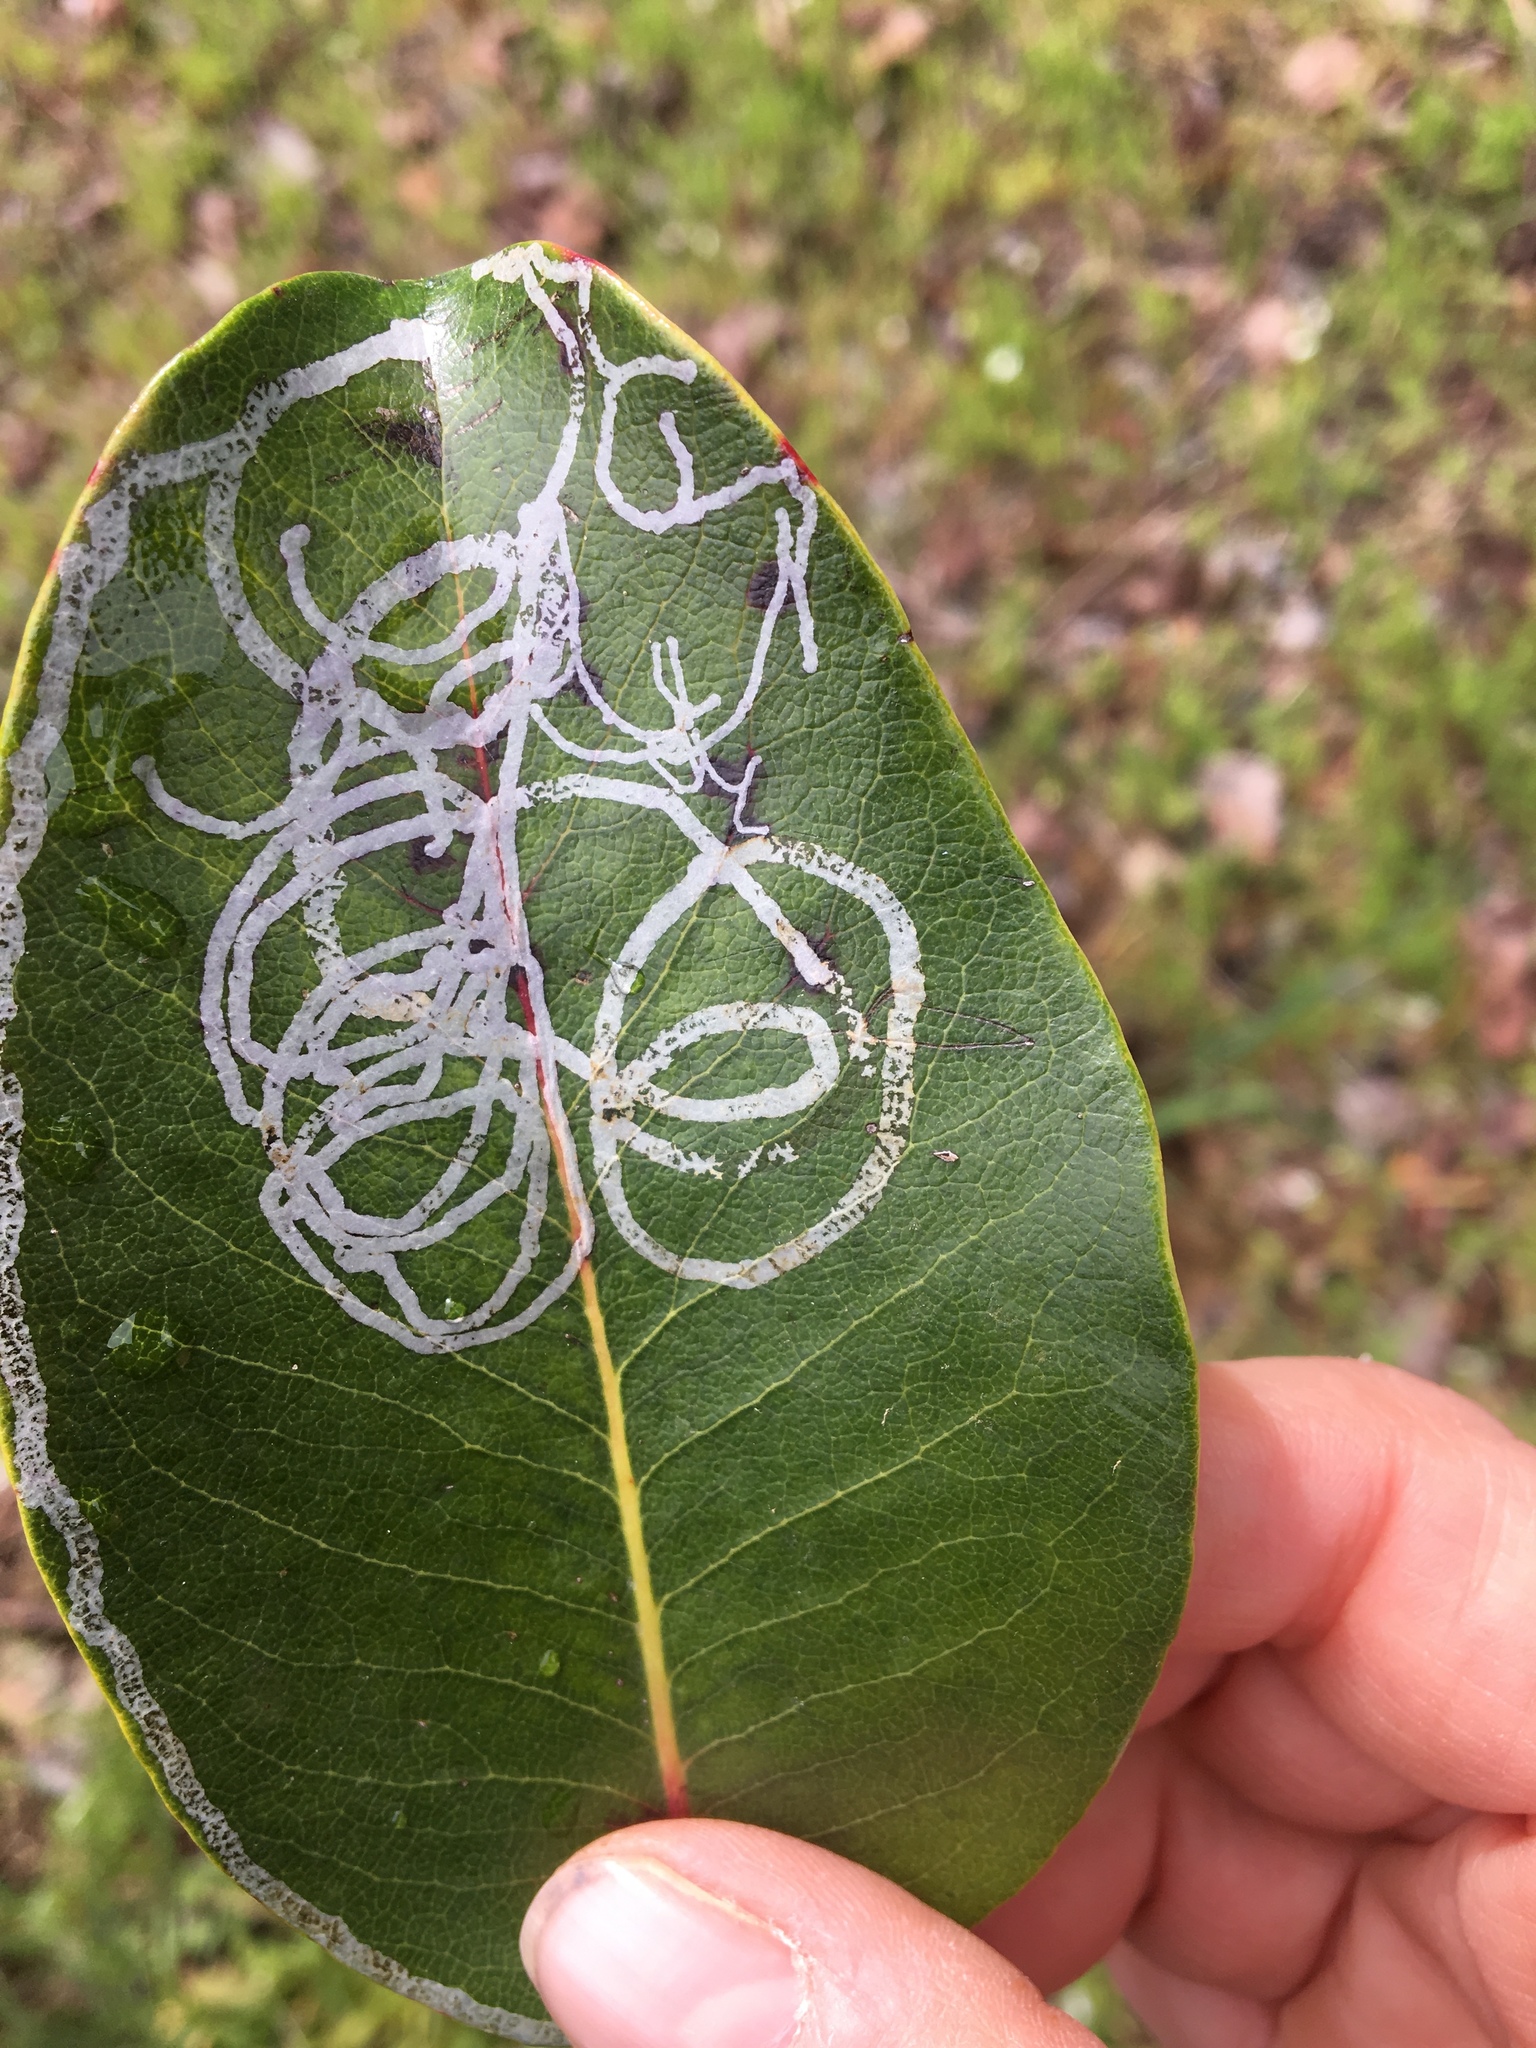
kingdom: Plantae
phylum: Tracheophyta
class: Magnoliopsida
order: Ericales
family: Ericaceae
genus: Arbutus
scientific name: Arbutus menziesii
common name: Pacific madrone
